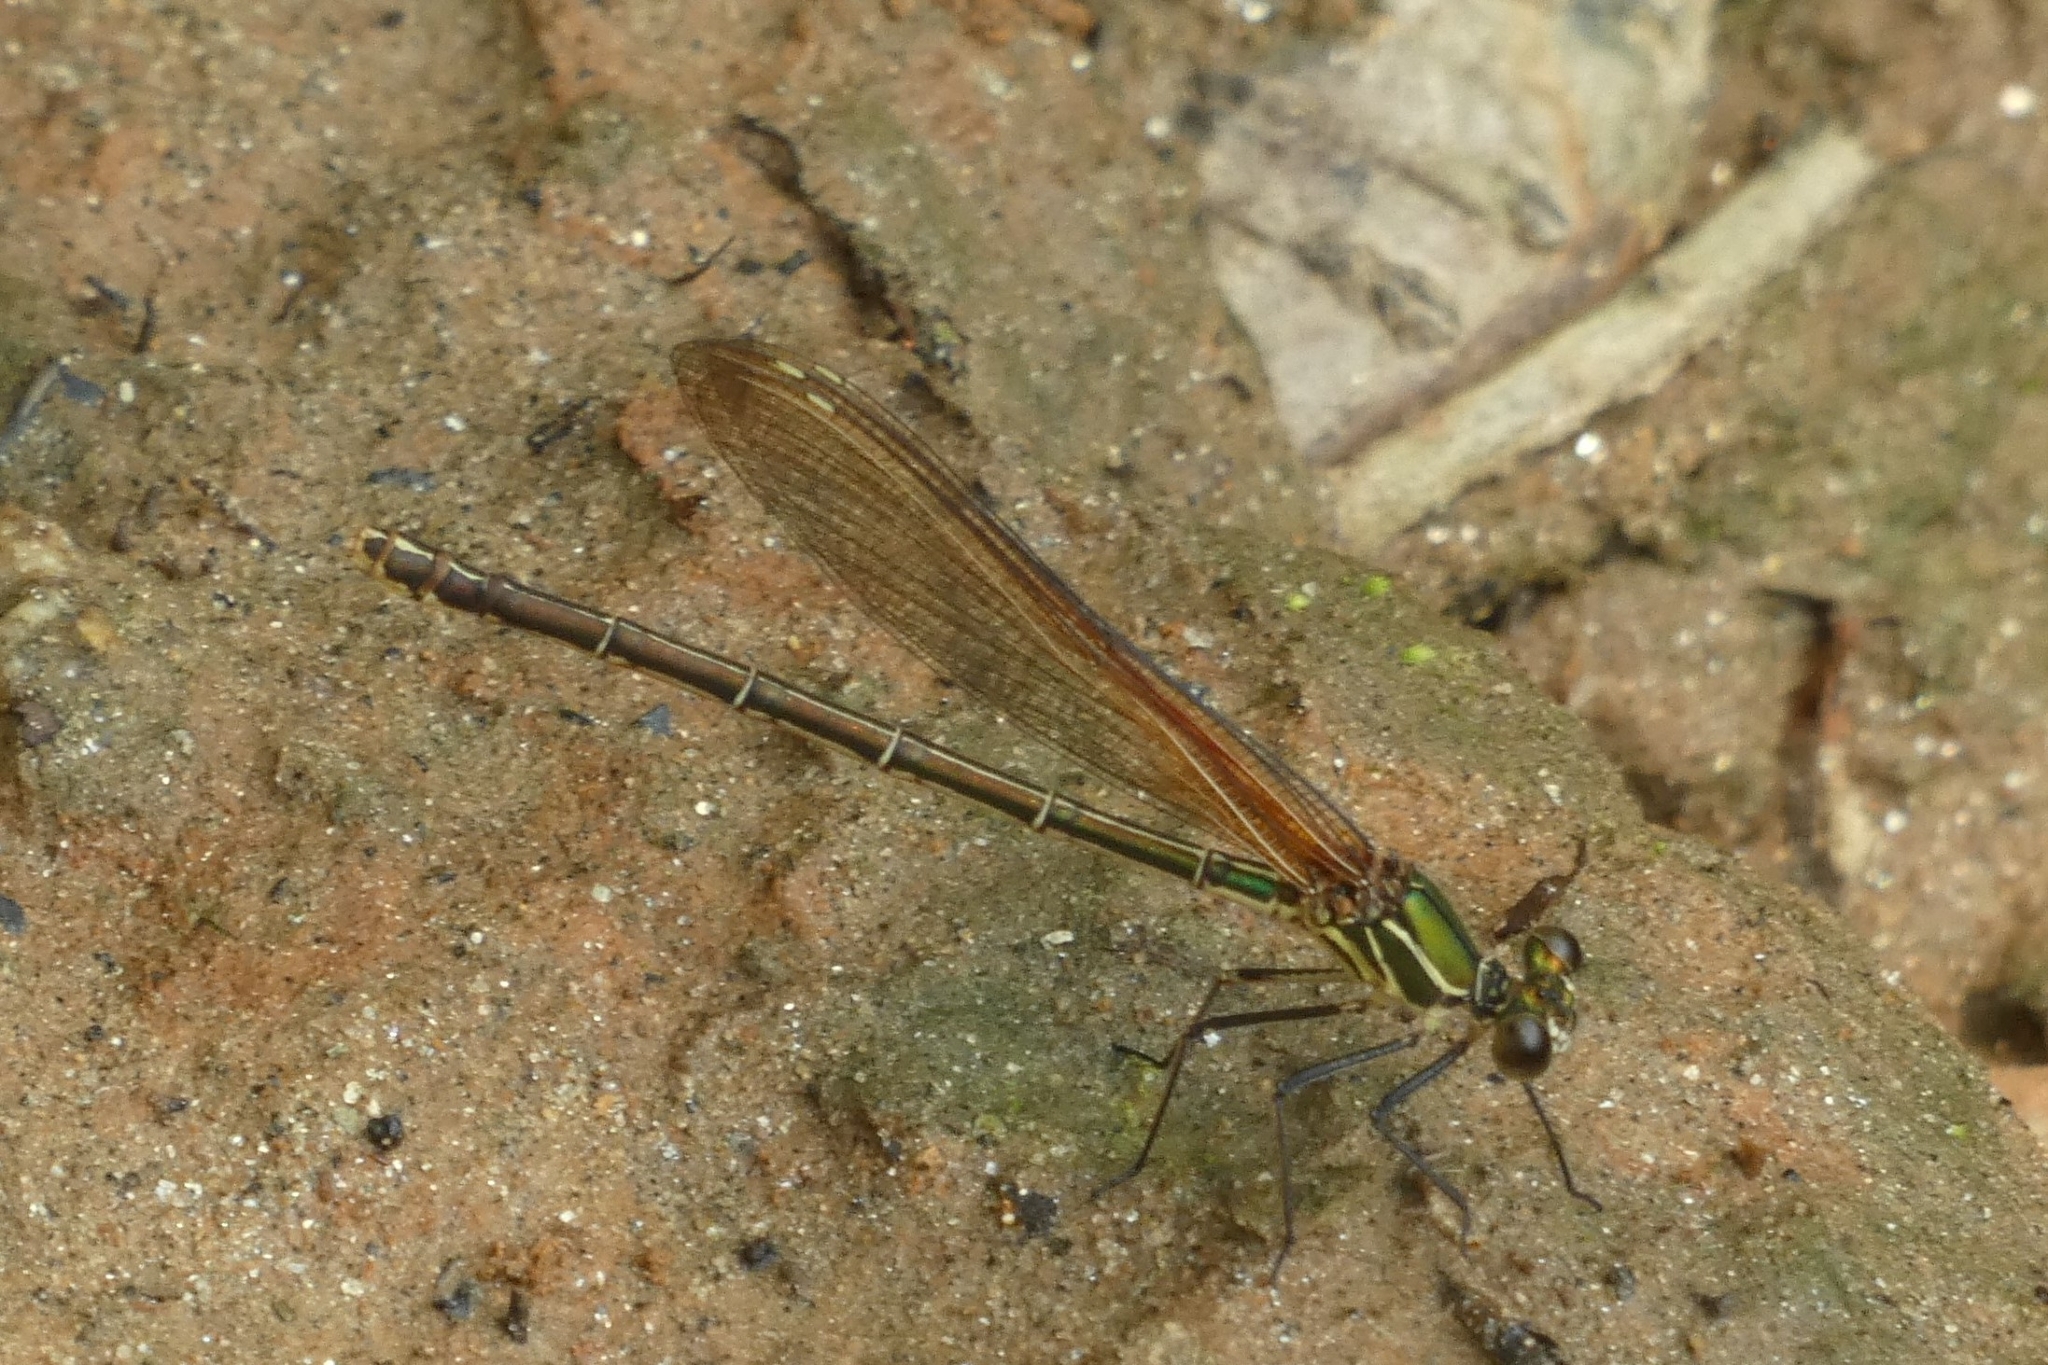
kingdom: Animalia
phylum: Arthropoda
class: Insecta
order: Odonata
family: Calopterygidae
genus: Hetaerina
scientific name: Hetaerina americana
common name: American rubyspot
